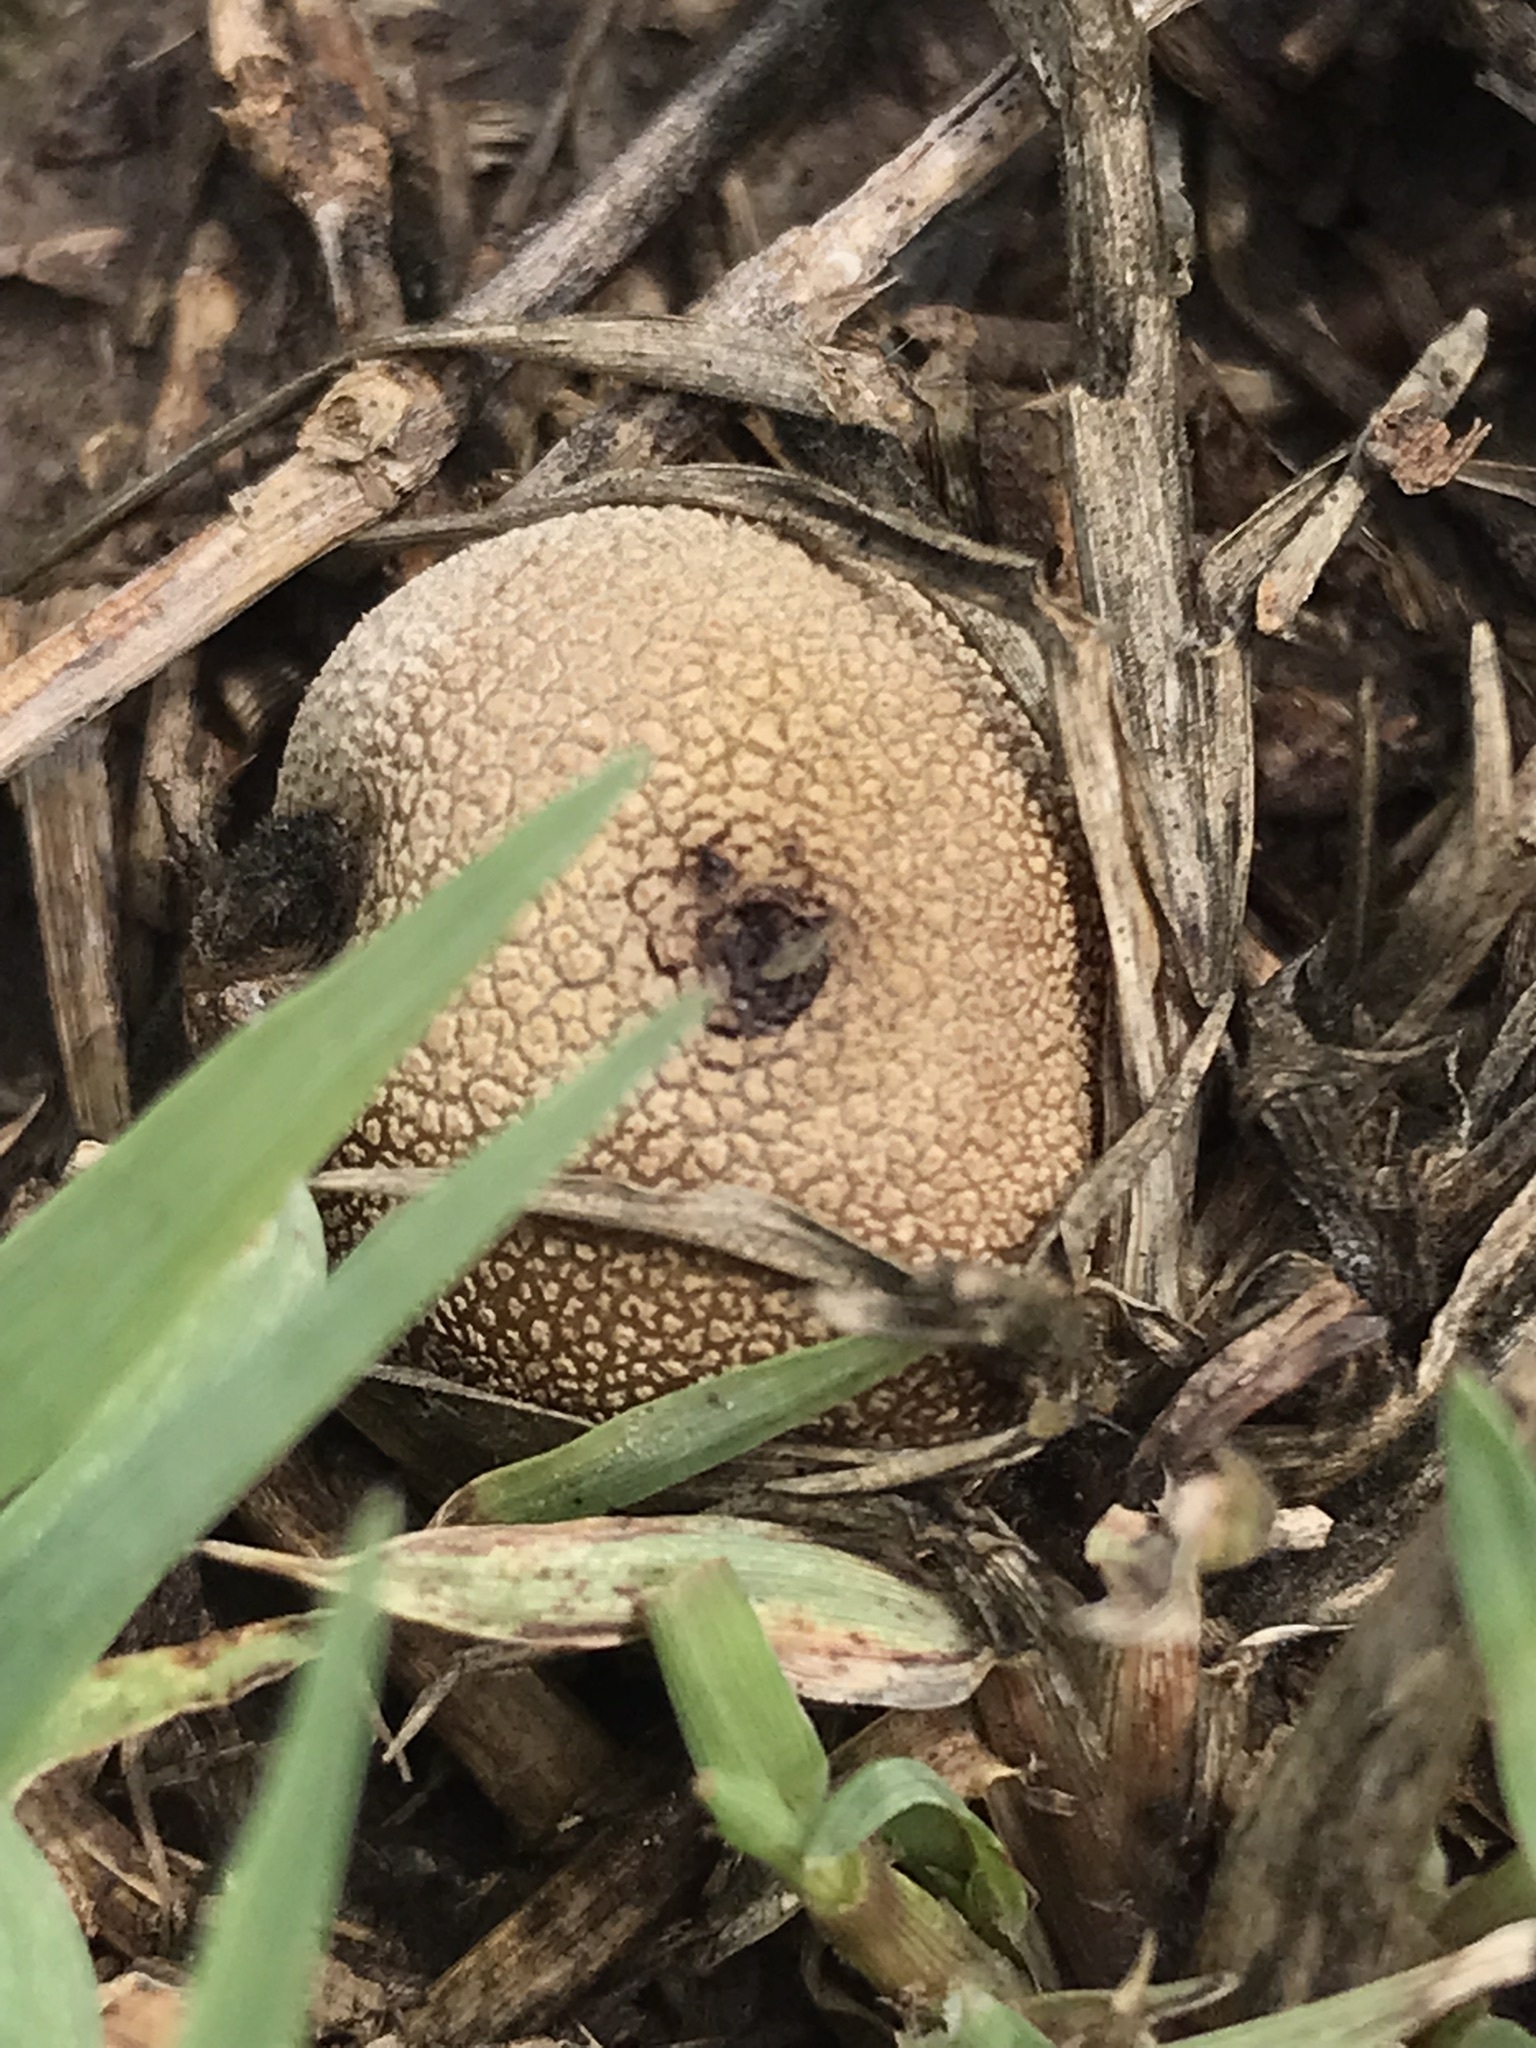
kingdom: Fungi
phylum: Basidiomycota
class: Agaricomycetes
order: Agaricales
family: Lycoperdaceae
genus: Lycoperdon
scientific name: Lycoperdon pratense
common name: Meadow puffball
